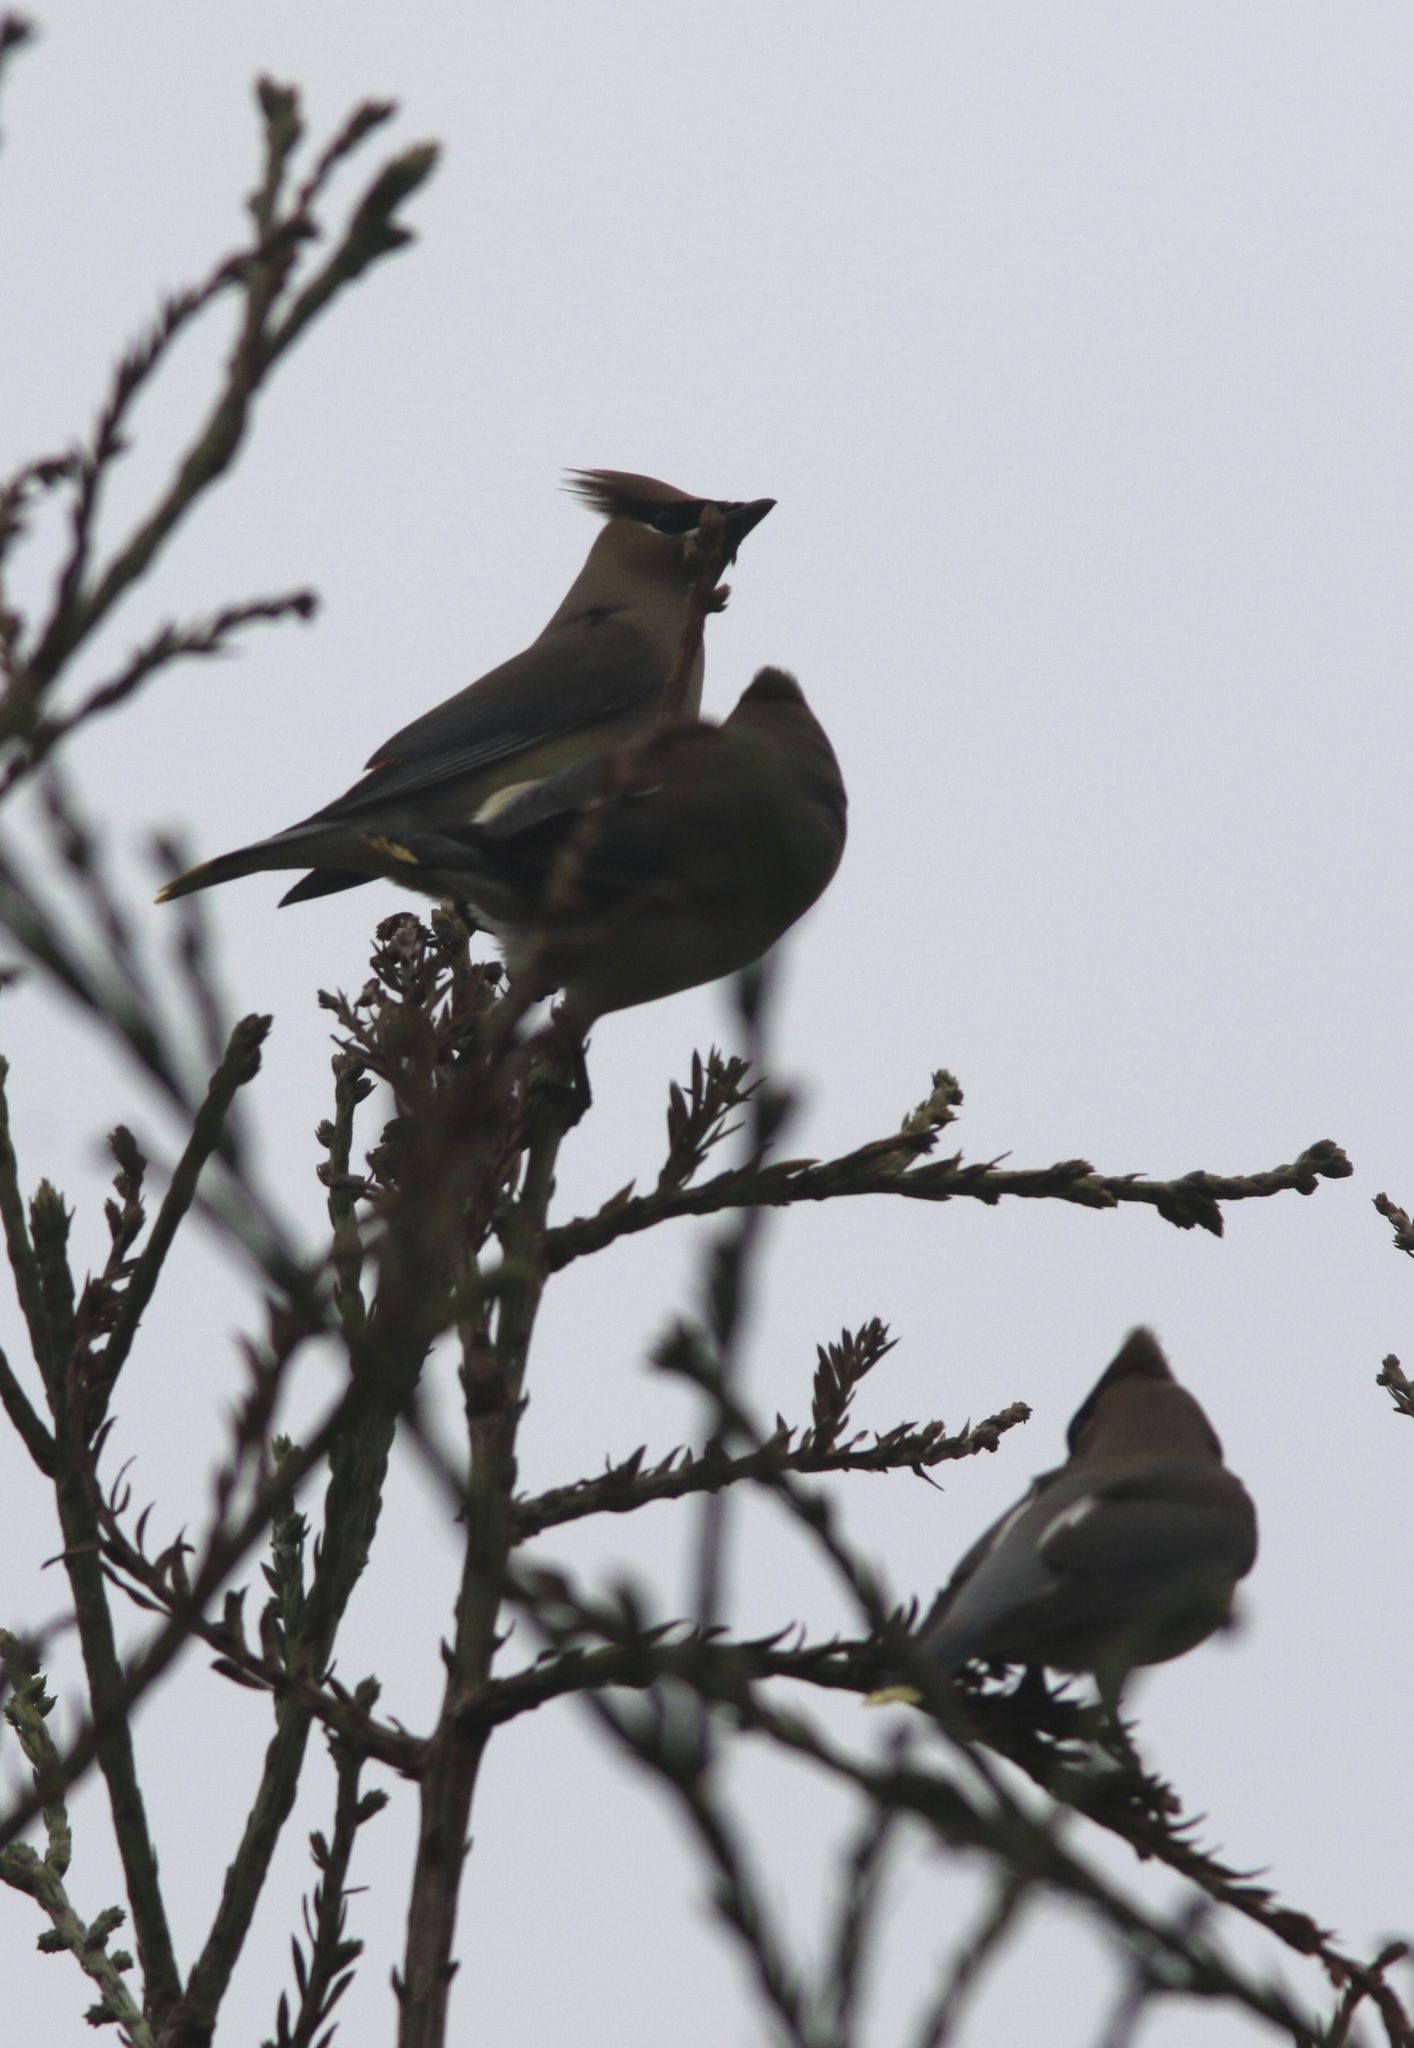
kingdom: Animalia
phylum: Chordata
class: Aves
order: Passeriformes
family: Bombycillidae
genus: Bombycilla
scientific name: Bombycilla cedrorum
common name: Cedar waxwing
